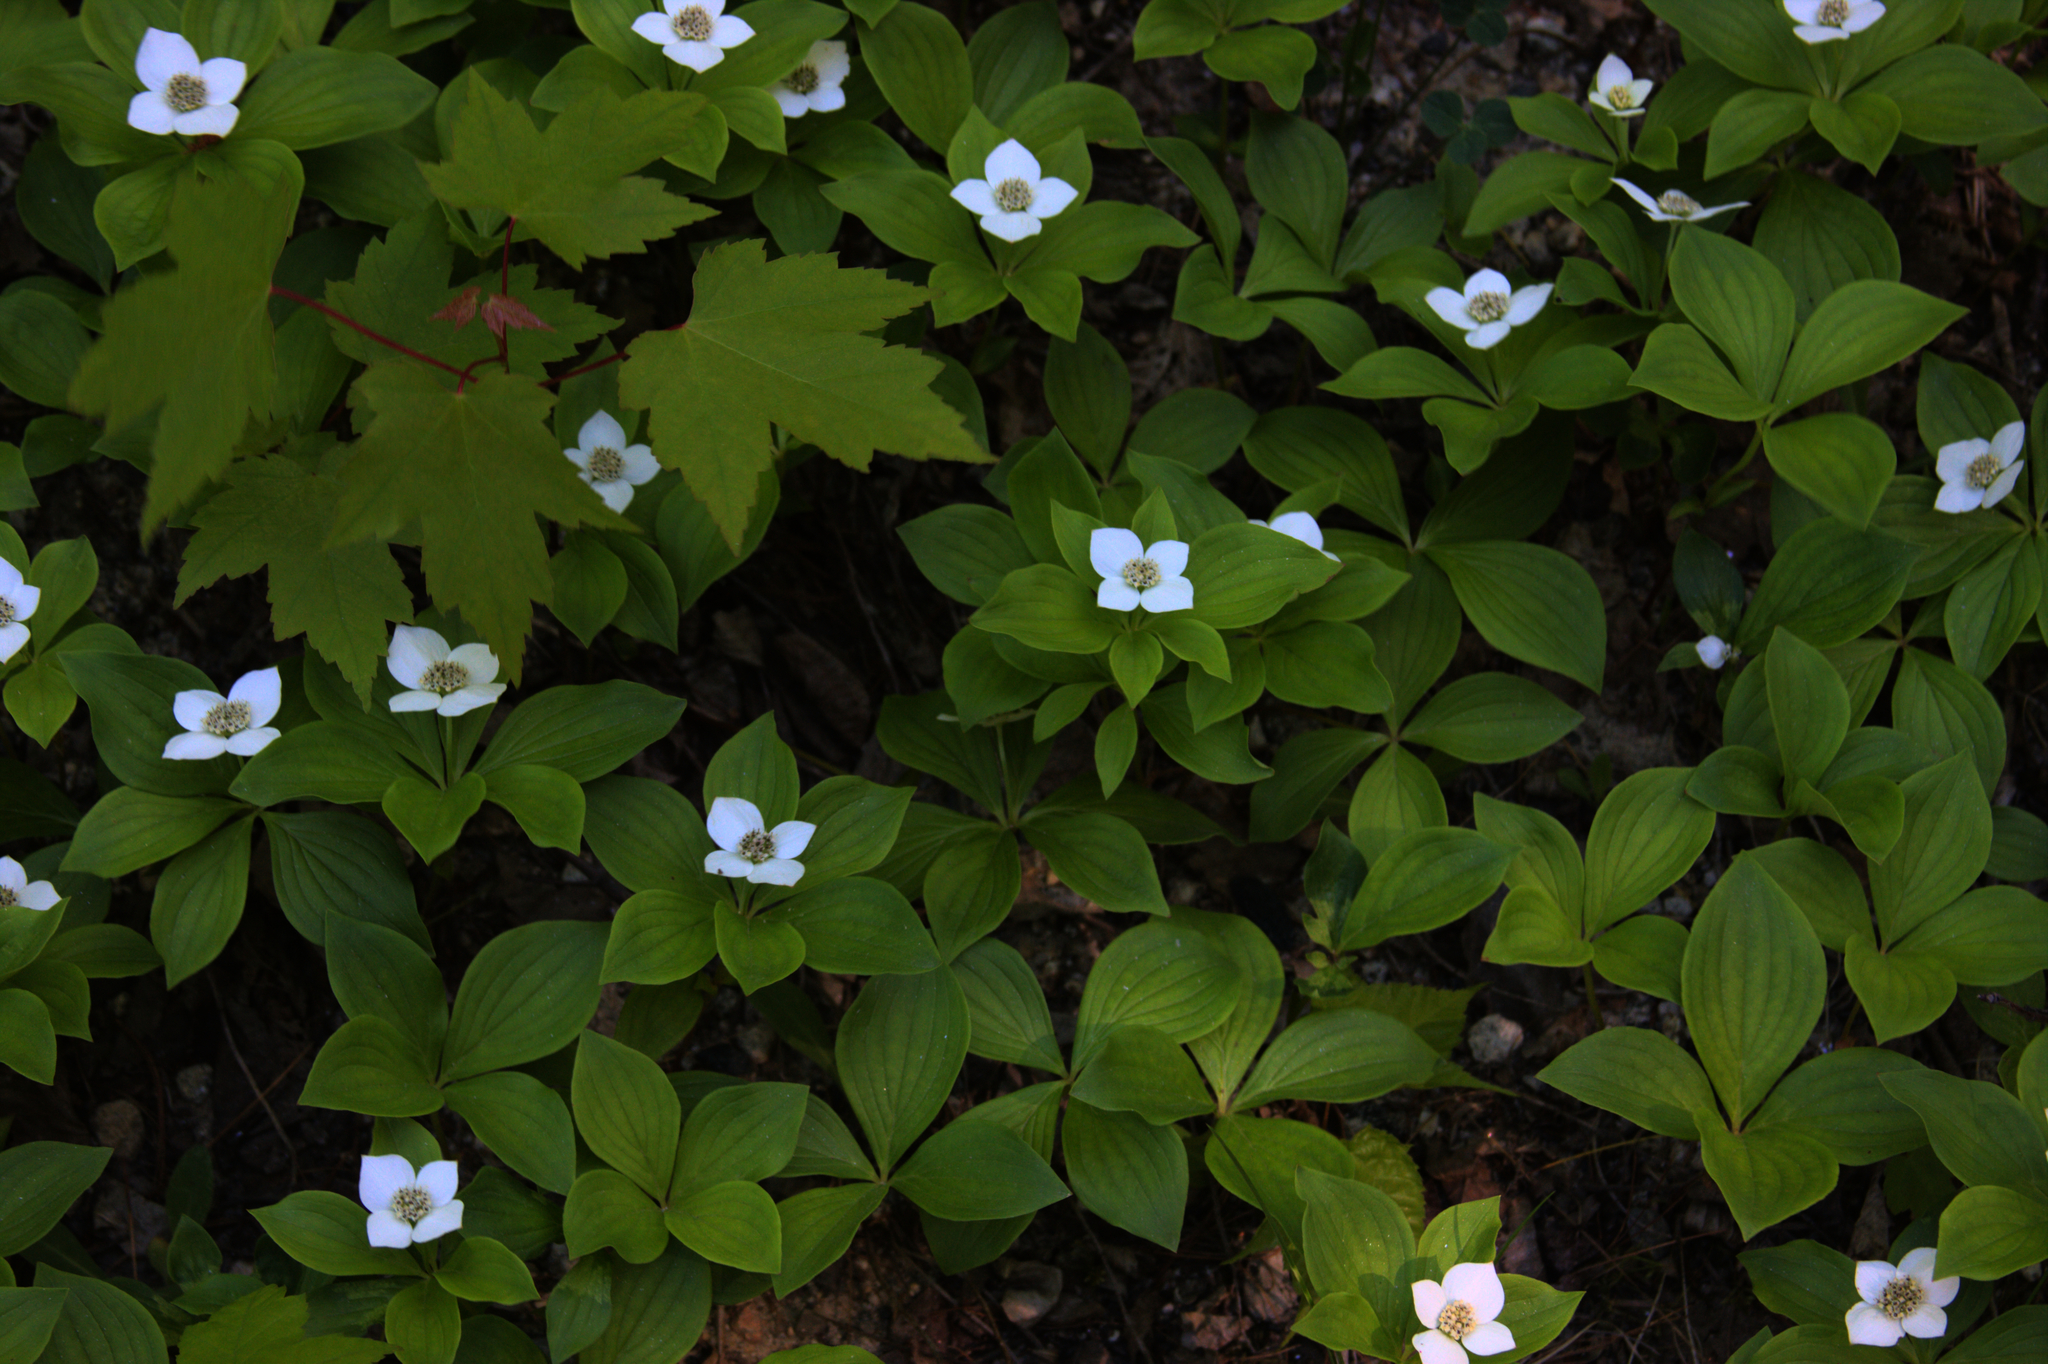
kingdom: Plantae
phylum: Tracheophyta
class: Magnoliopsida
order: Cornales
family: Cornaceae
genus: Cornus
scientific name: Cornus canadensis
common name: Creeping dogwood
